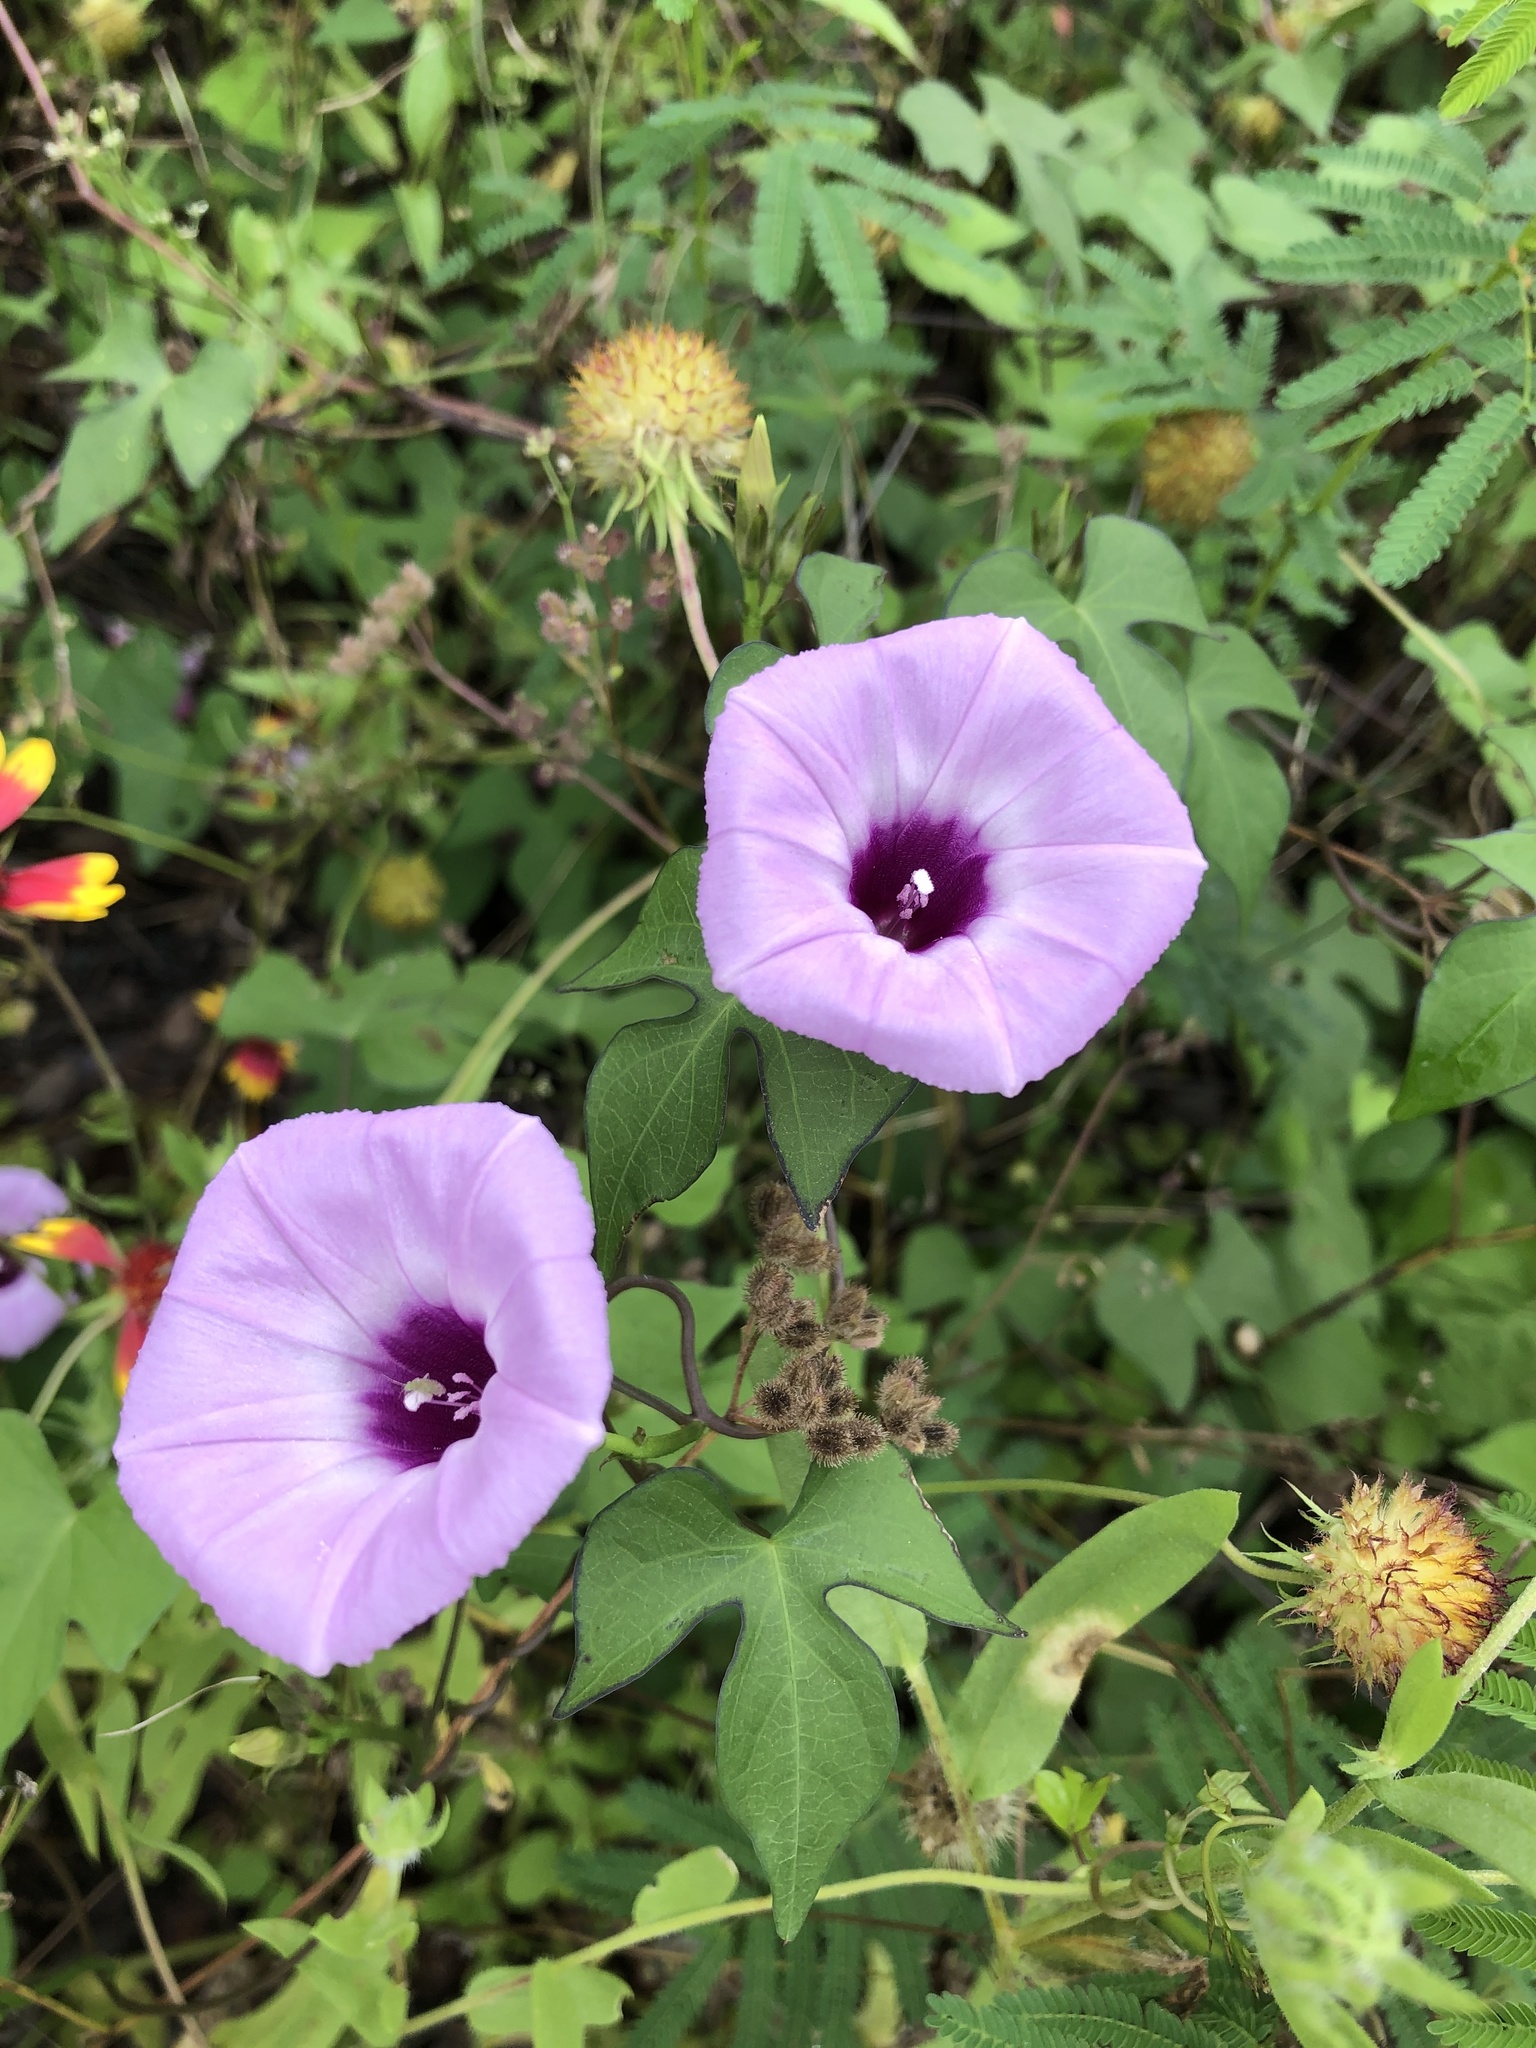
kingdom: Plantae
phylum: Tracheophyta
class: Magnoliopsida
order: Solanales
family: Convolvulaceae
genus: Ipomoea
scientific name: Ipomoea cordatotriloba
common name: Cotton morning glory
